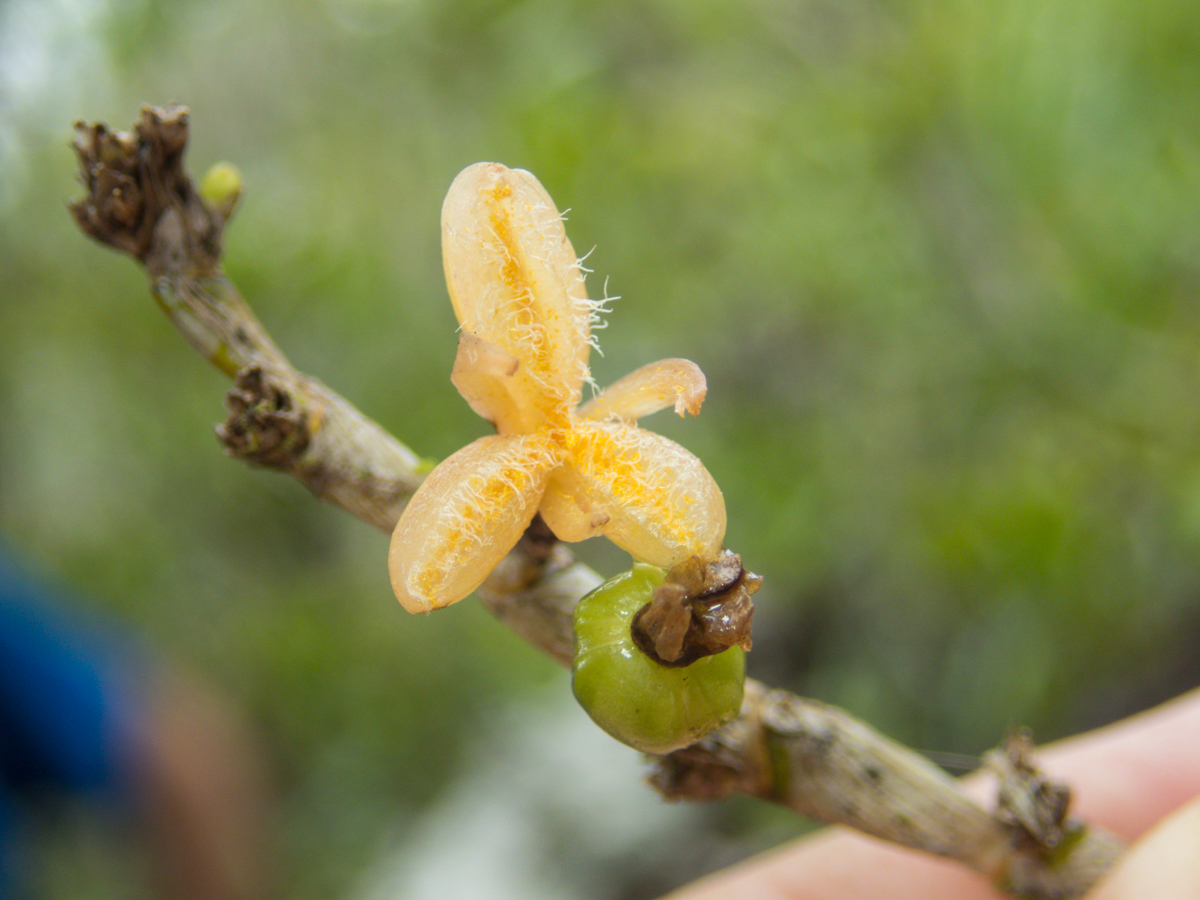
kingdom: Plantae
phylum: Tracheophyta
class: Liliopsida
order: Asparagales
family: Orchidaceae
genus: Dendrobium
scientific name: Dendrobium aloifolium
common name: Aloe-like dendrobium
